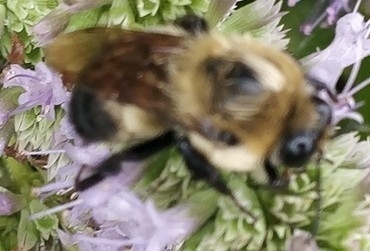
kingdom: Animalia
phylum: Arthropoda
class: Insecta
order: Hymenoptera
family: Apidae
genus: Bombus
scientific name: Bombus griseocollis
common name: Brown-belted bumble bee
